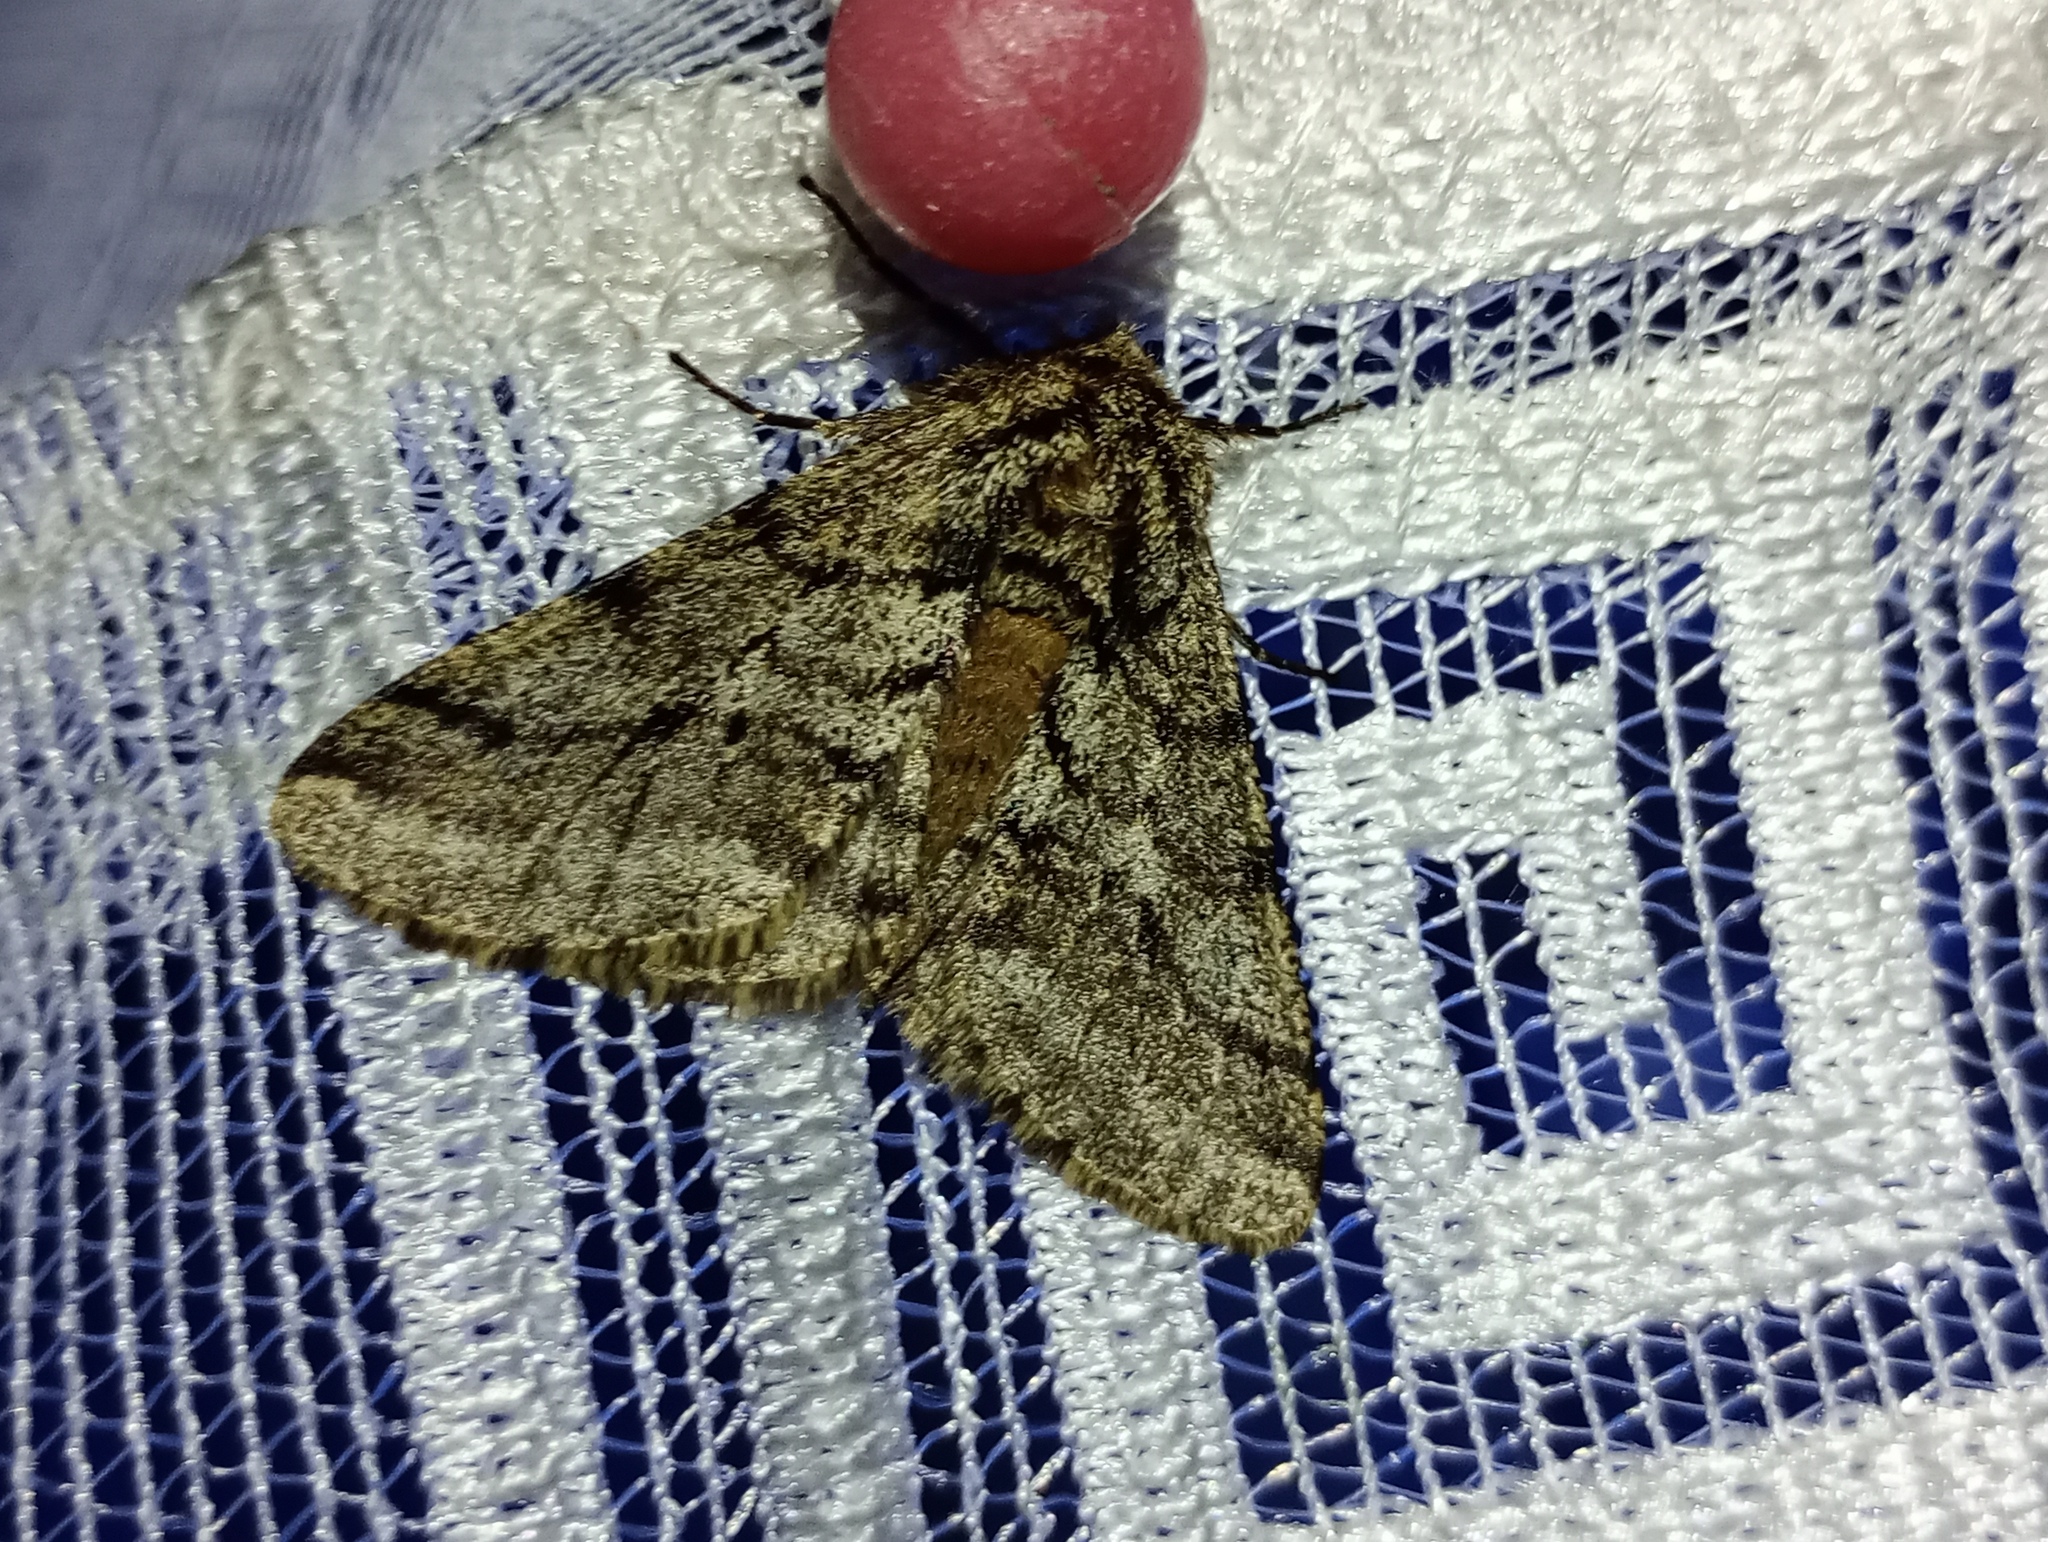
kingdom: Animalia
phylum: Arthropoda
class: Insecta
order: Lepidoptera
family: Geometridae
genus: Lycia
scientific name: Lycia hirtaria
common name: Brindled beauty
